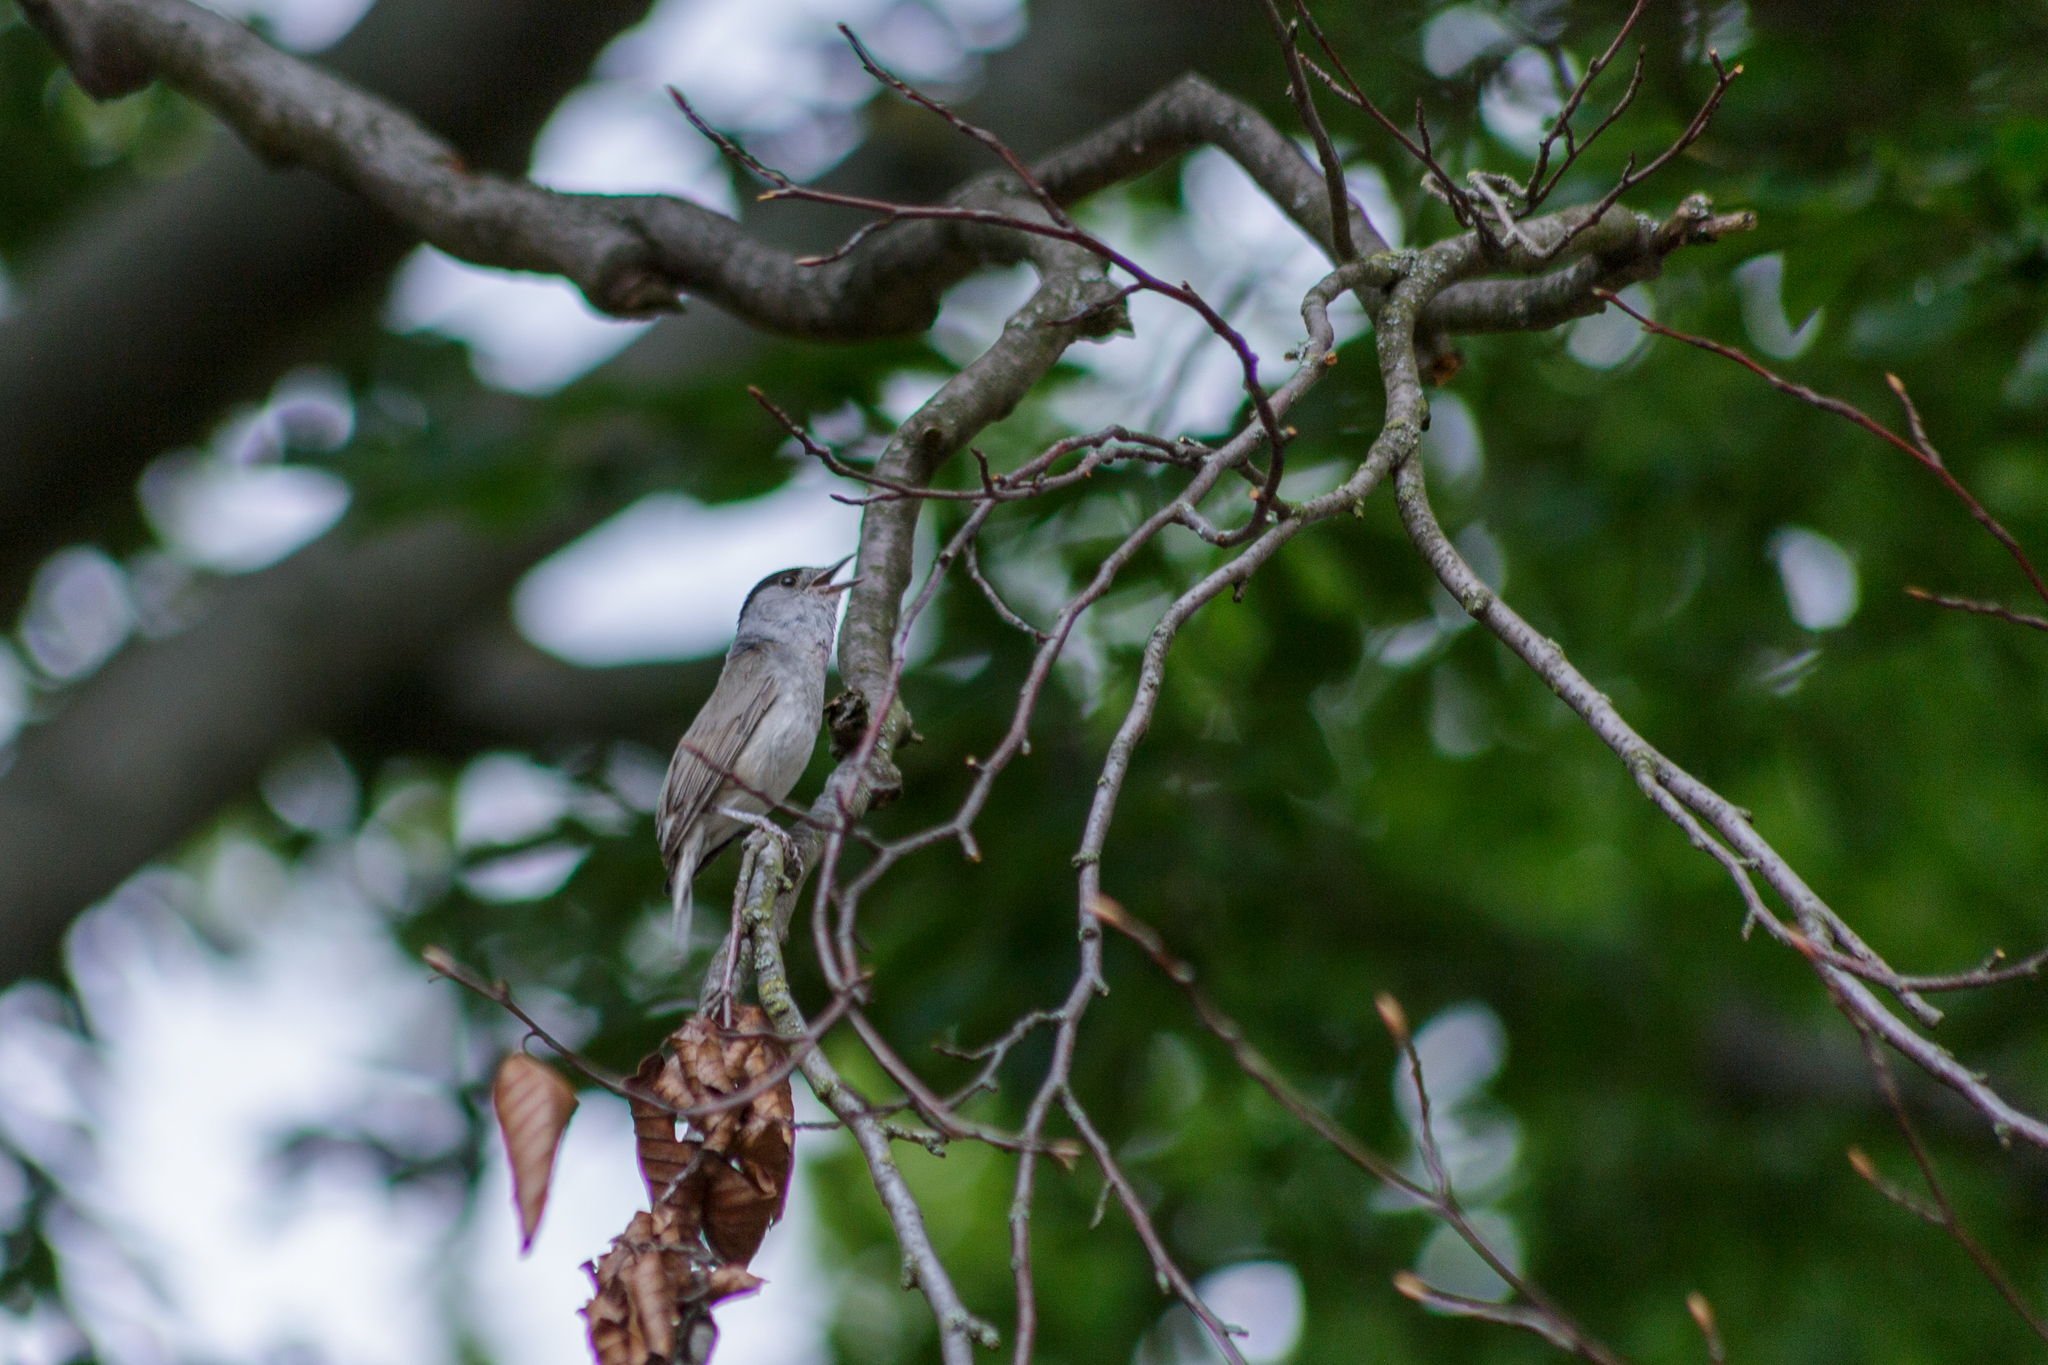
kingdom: Animalia
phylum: Chordata
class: Aves
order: Passeriformes
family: Sylviidae
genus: Sylvia
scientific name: Sylvia atricapilla
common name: Eurasian blackcap
